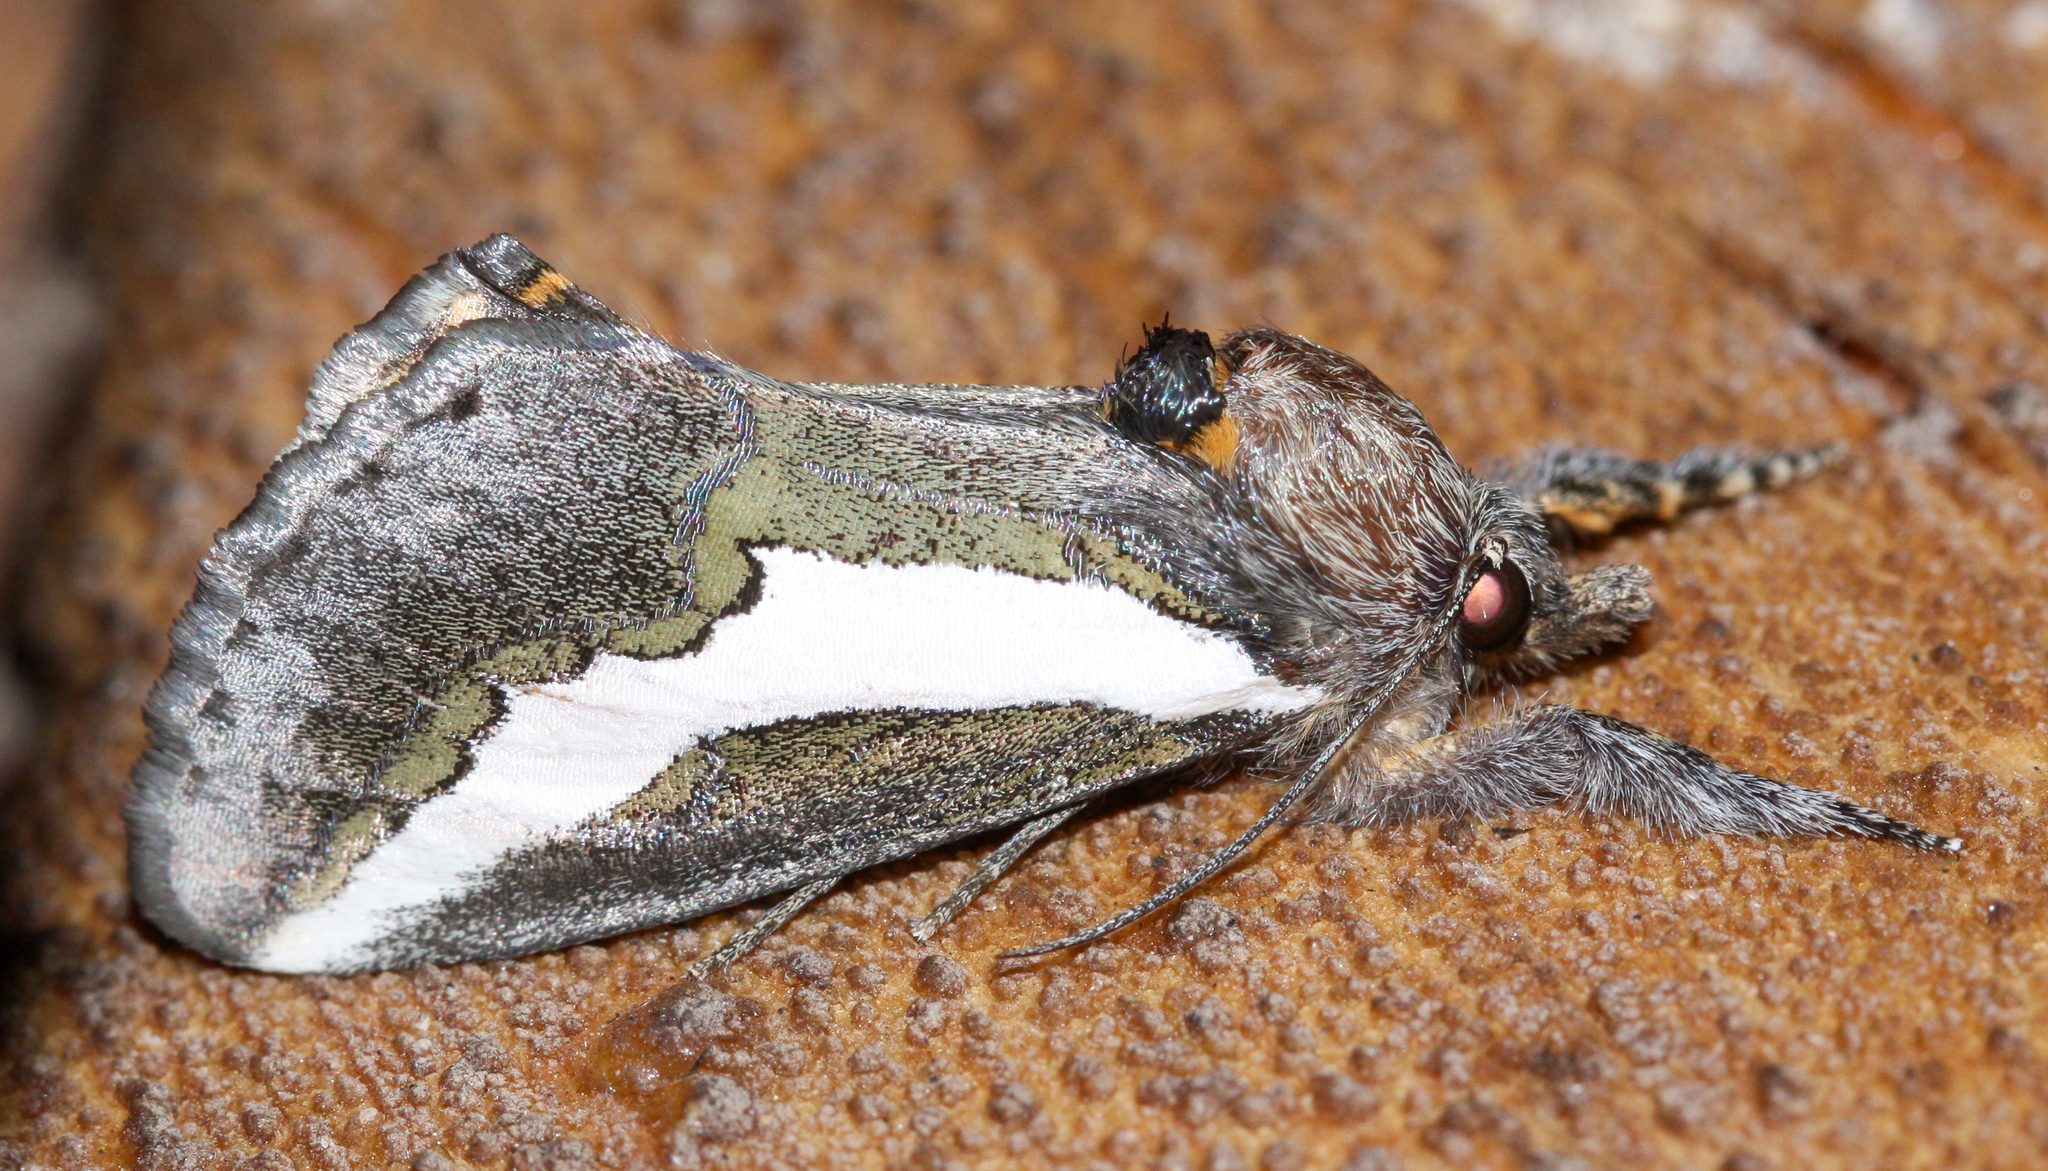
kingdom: Animalia
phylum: Arthropoda
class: Insecta
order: Lepidoptera
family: Noctuidae
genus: Euscirrhopterus
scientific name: Euscirrhopterus cosyra
